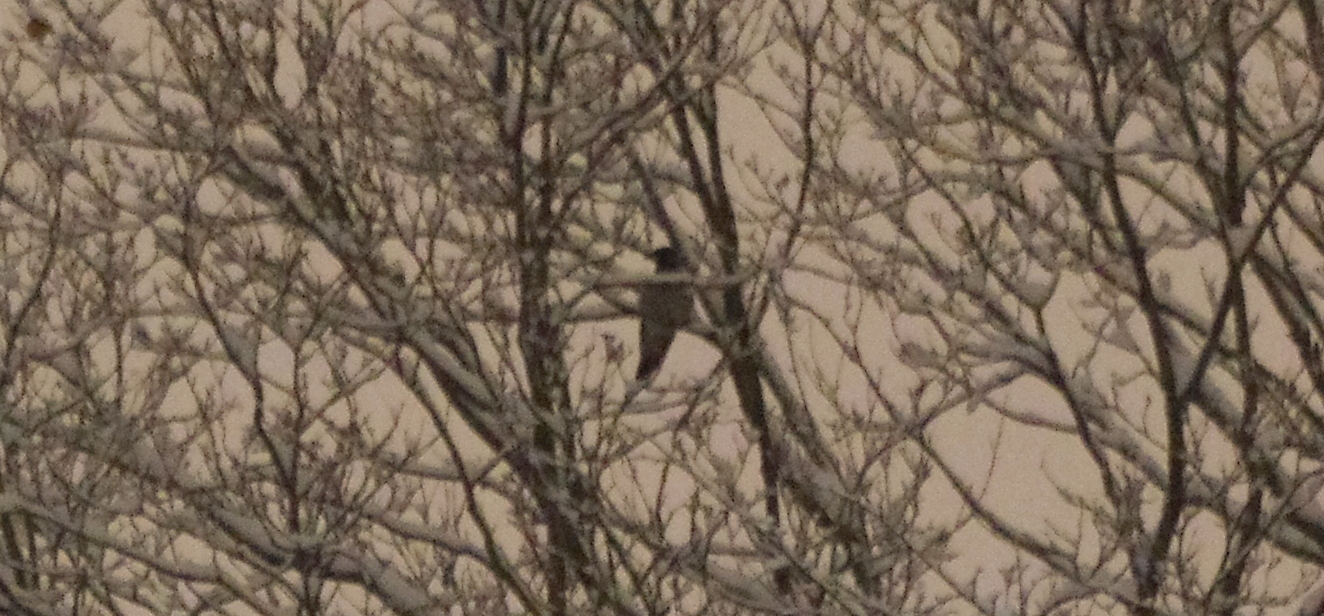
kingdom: Animalia
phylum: Chordata
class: Aves
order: Passeriformes
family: Corvidae
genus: Corvus
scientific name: Corvus cornix
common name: Hooded crow
